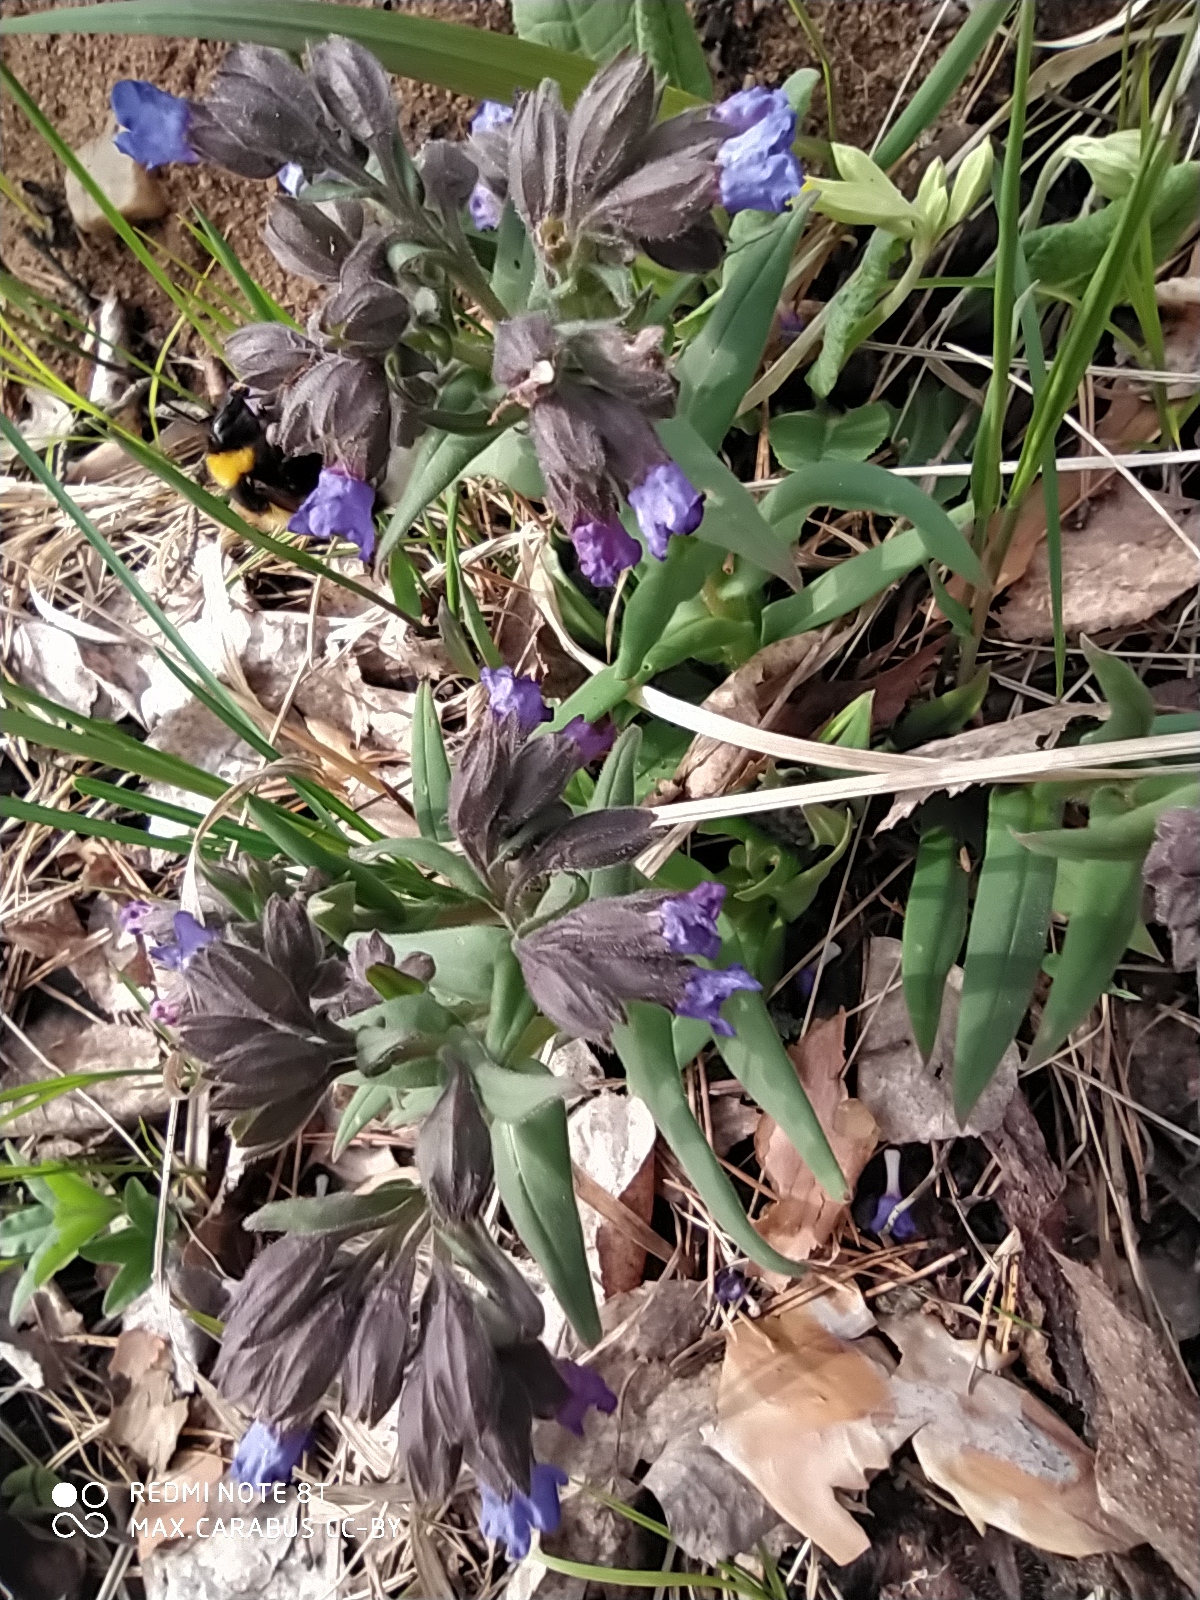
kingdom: Plantae
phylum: Tracheophyta
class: Magnoliopsida
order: Boraginales
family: Boraginaceae
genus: Pulmonaria
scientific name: Pulmonaria angustifolia
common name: Blue cowslip
